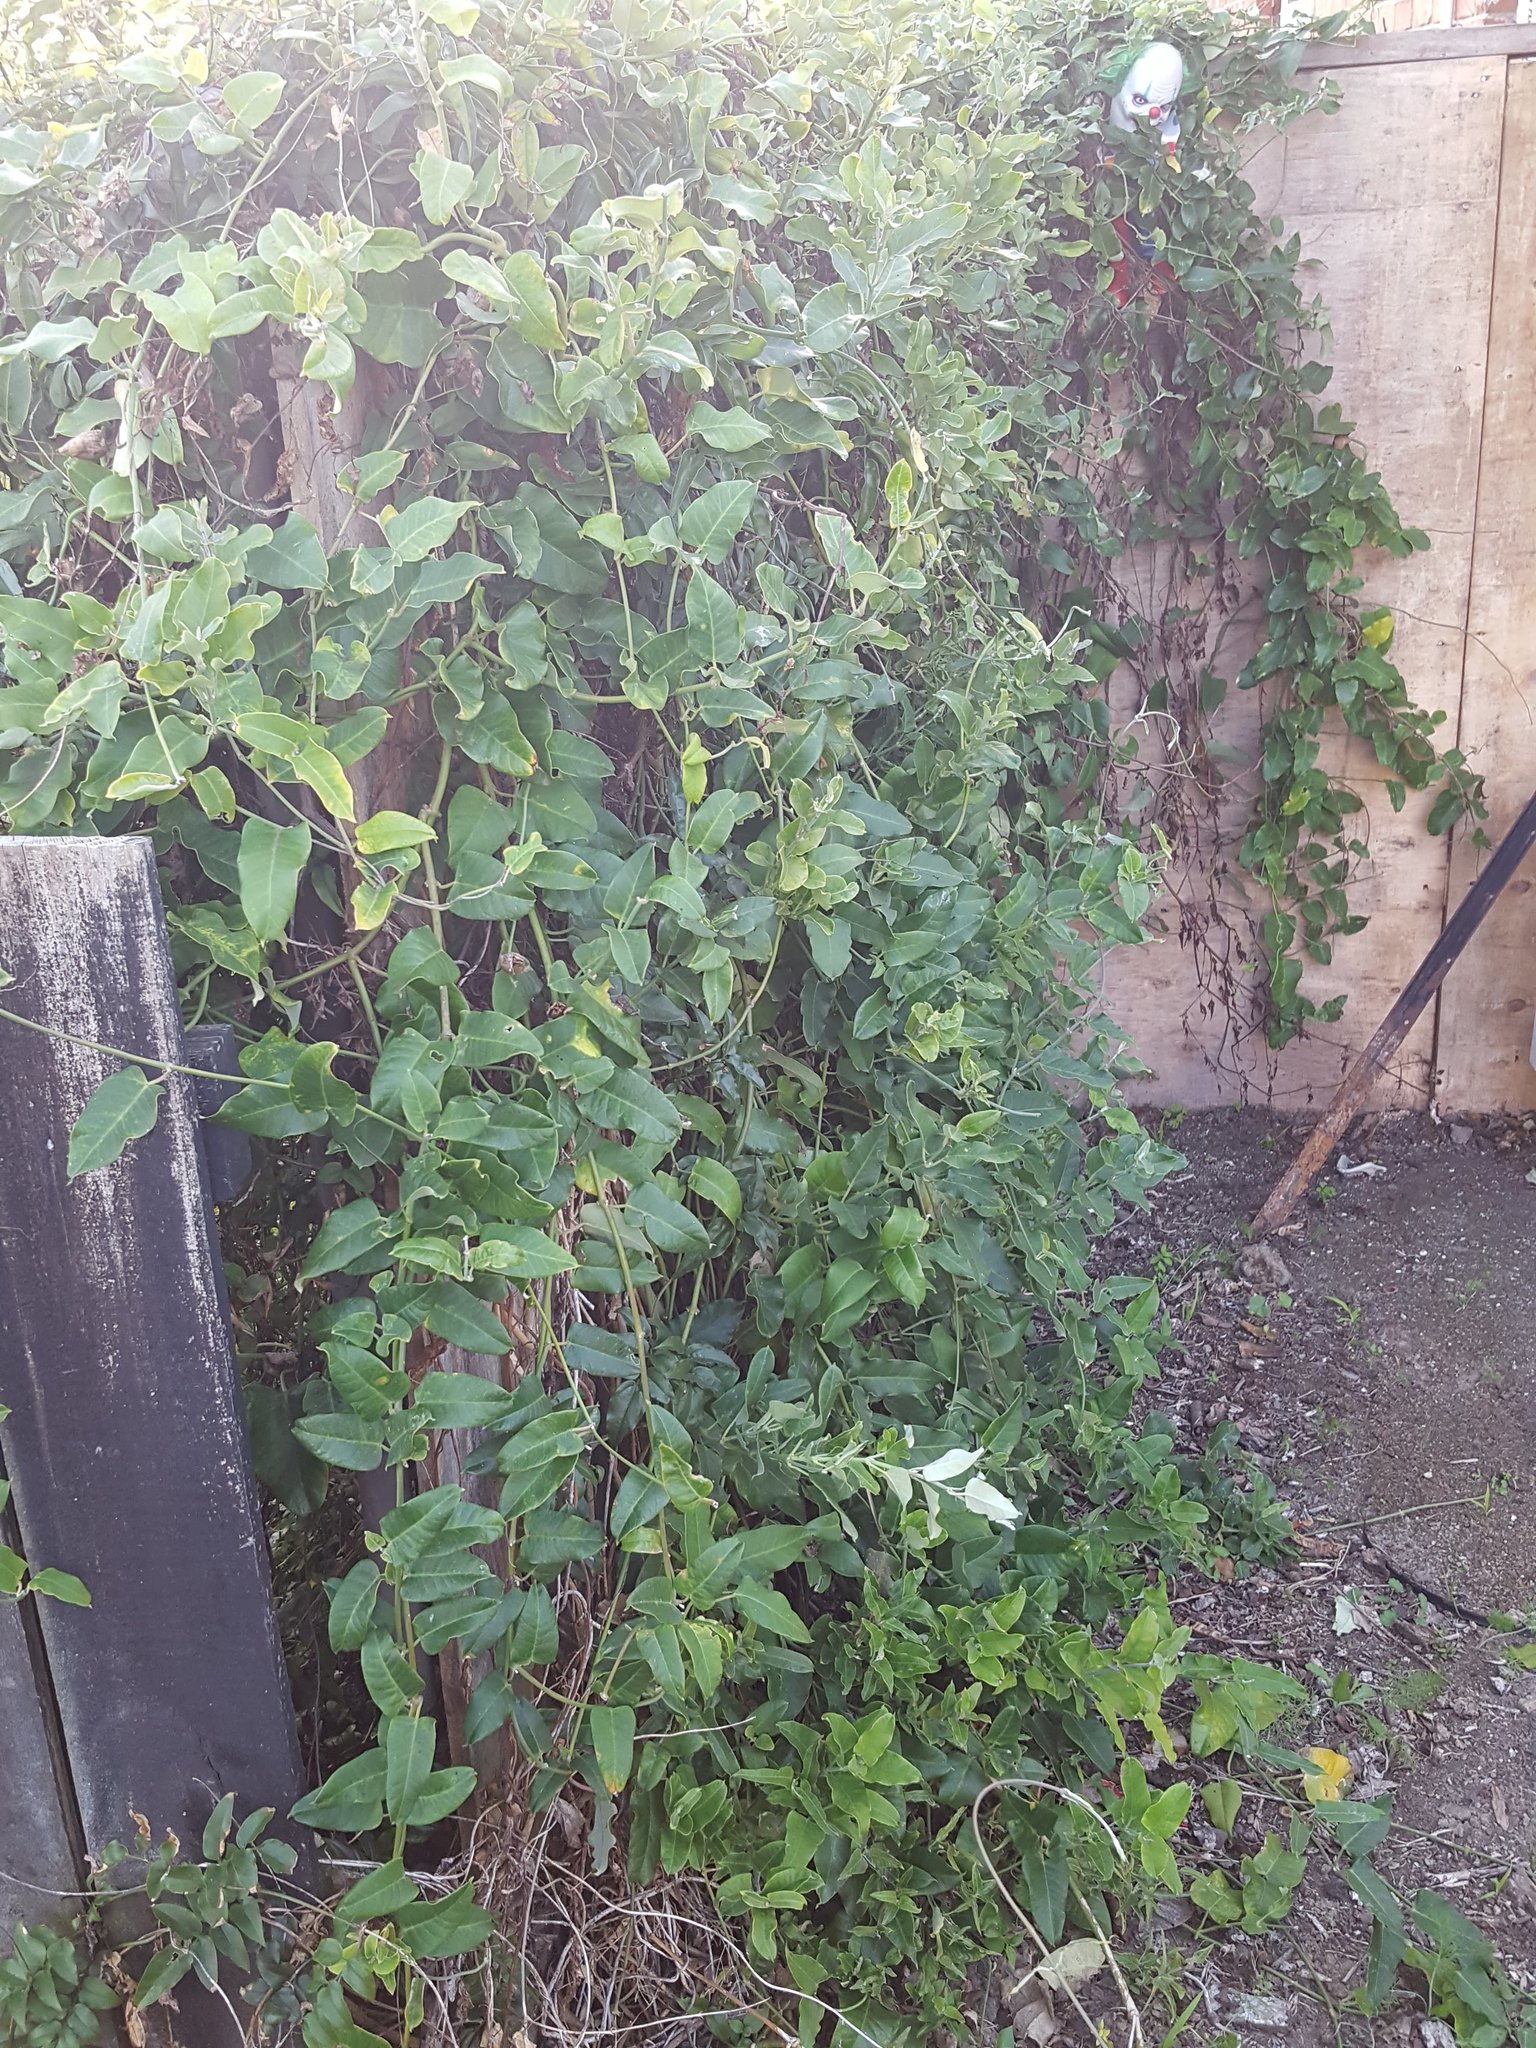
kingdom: Plantae
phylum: Tracheophyta
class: Magnoliopsida
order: Gentianales
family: Apocynaceae
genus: Araujia
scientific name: Araujia sericifera
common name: White bladderflower
